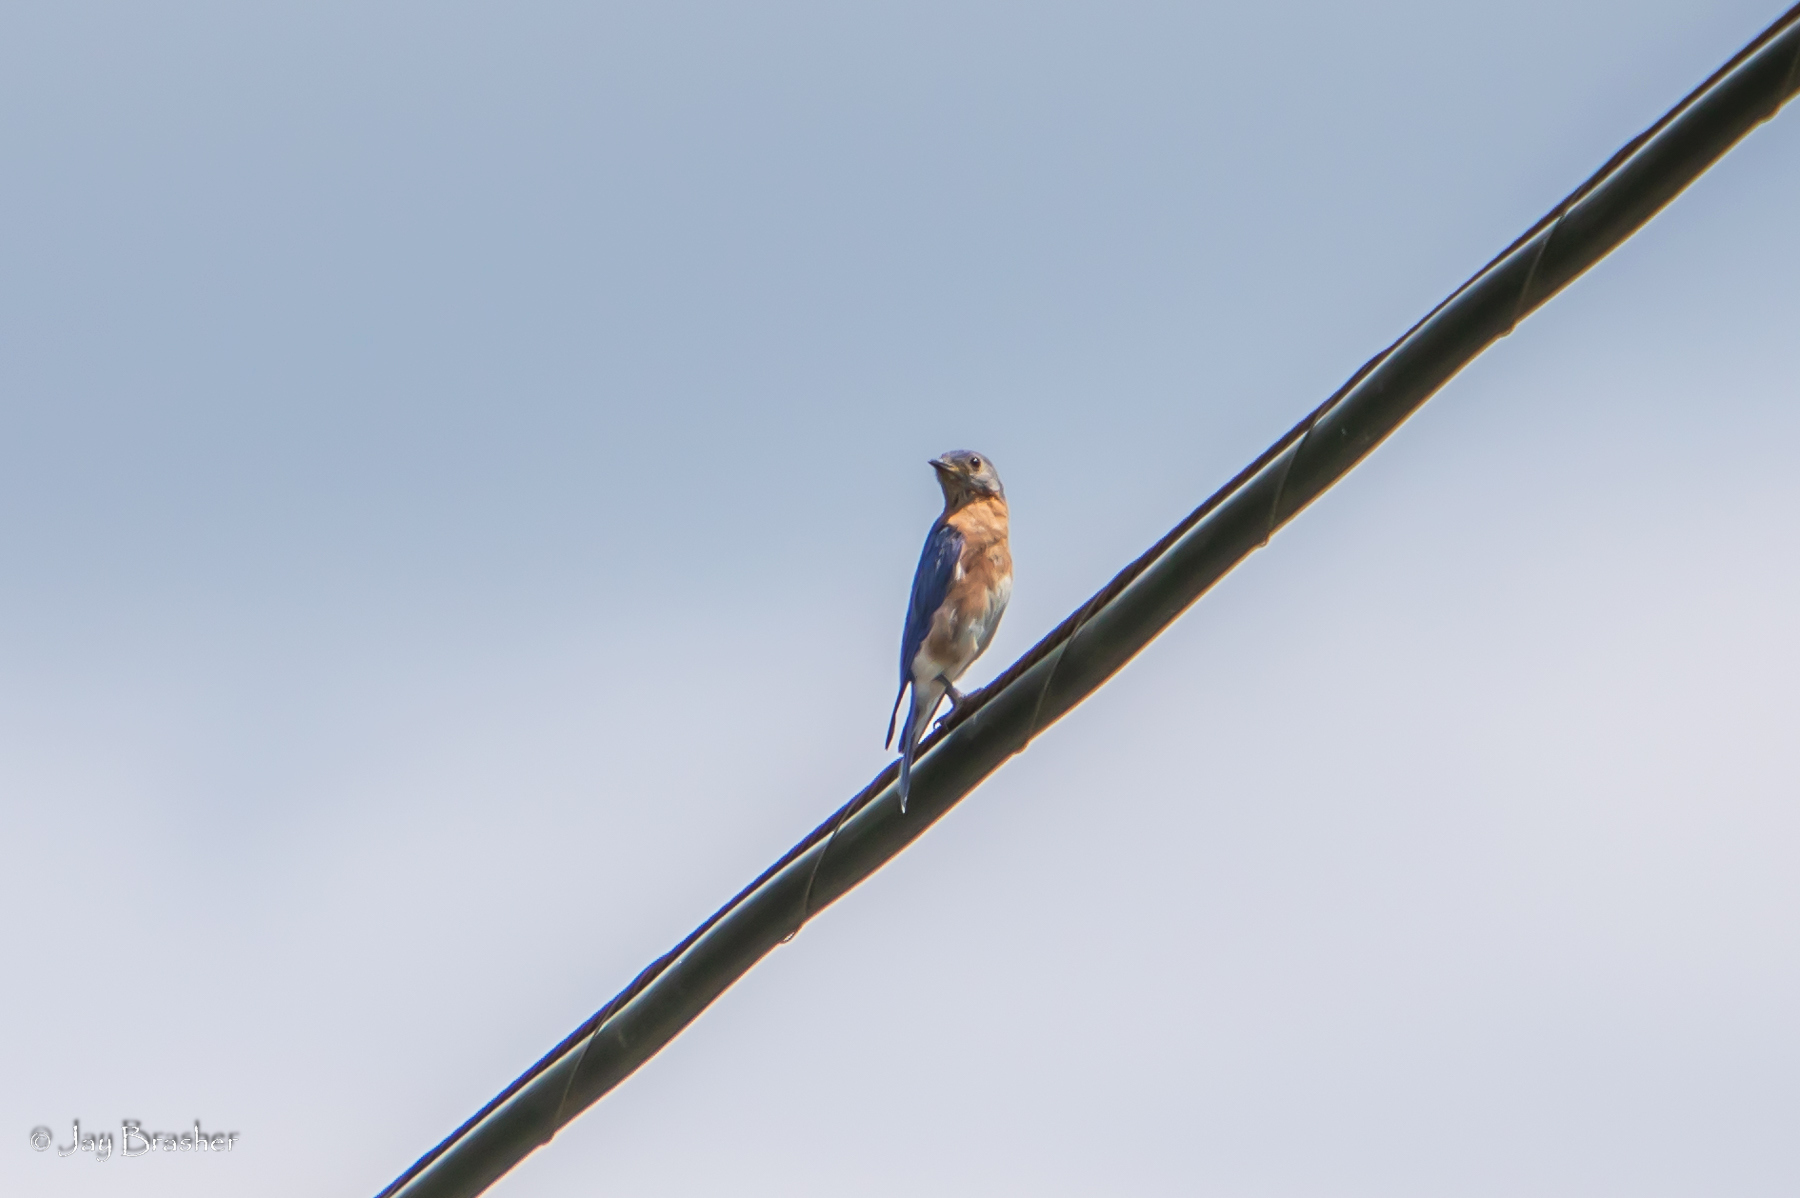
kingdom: Animalia
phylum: Chordata
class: Aves
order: Passeriformes
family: Turdidae
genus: Sialia
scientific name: Sialia sialis
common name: Eastern bluebird
